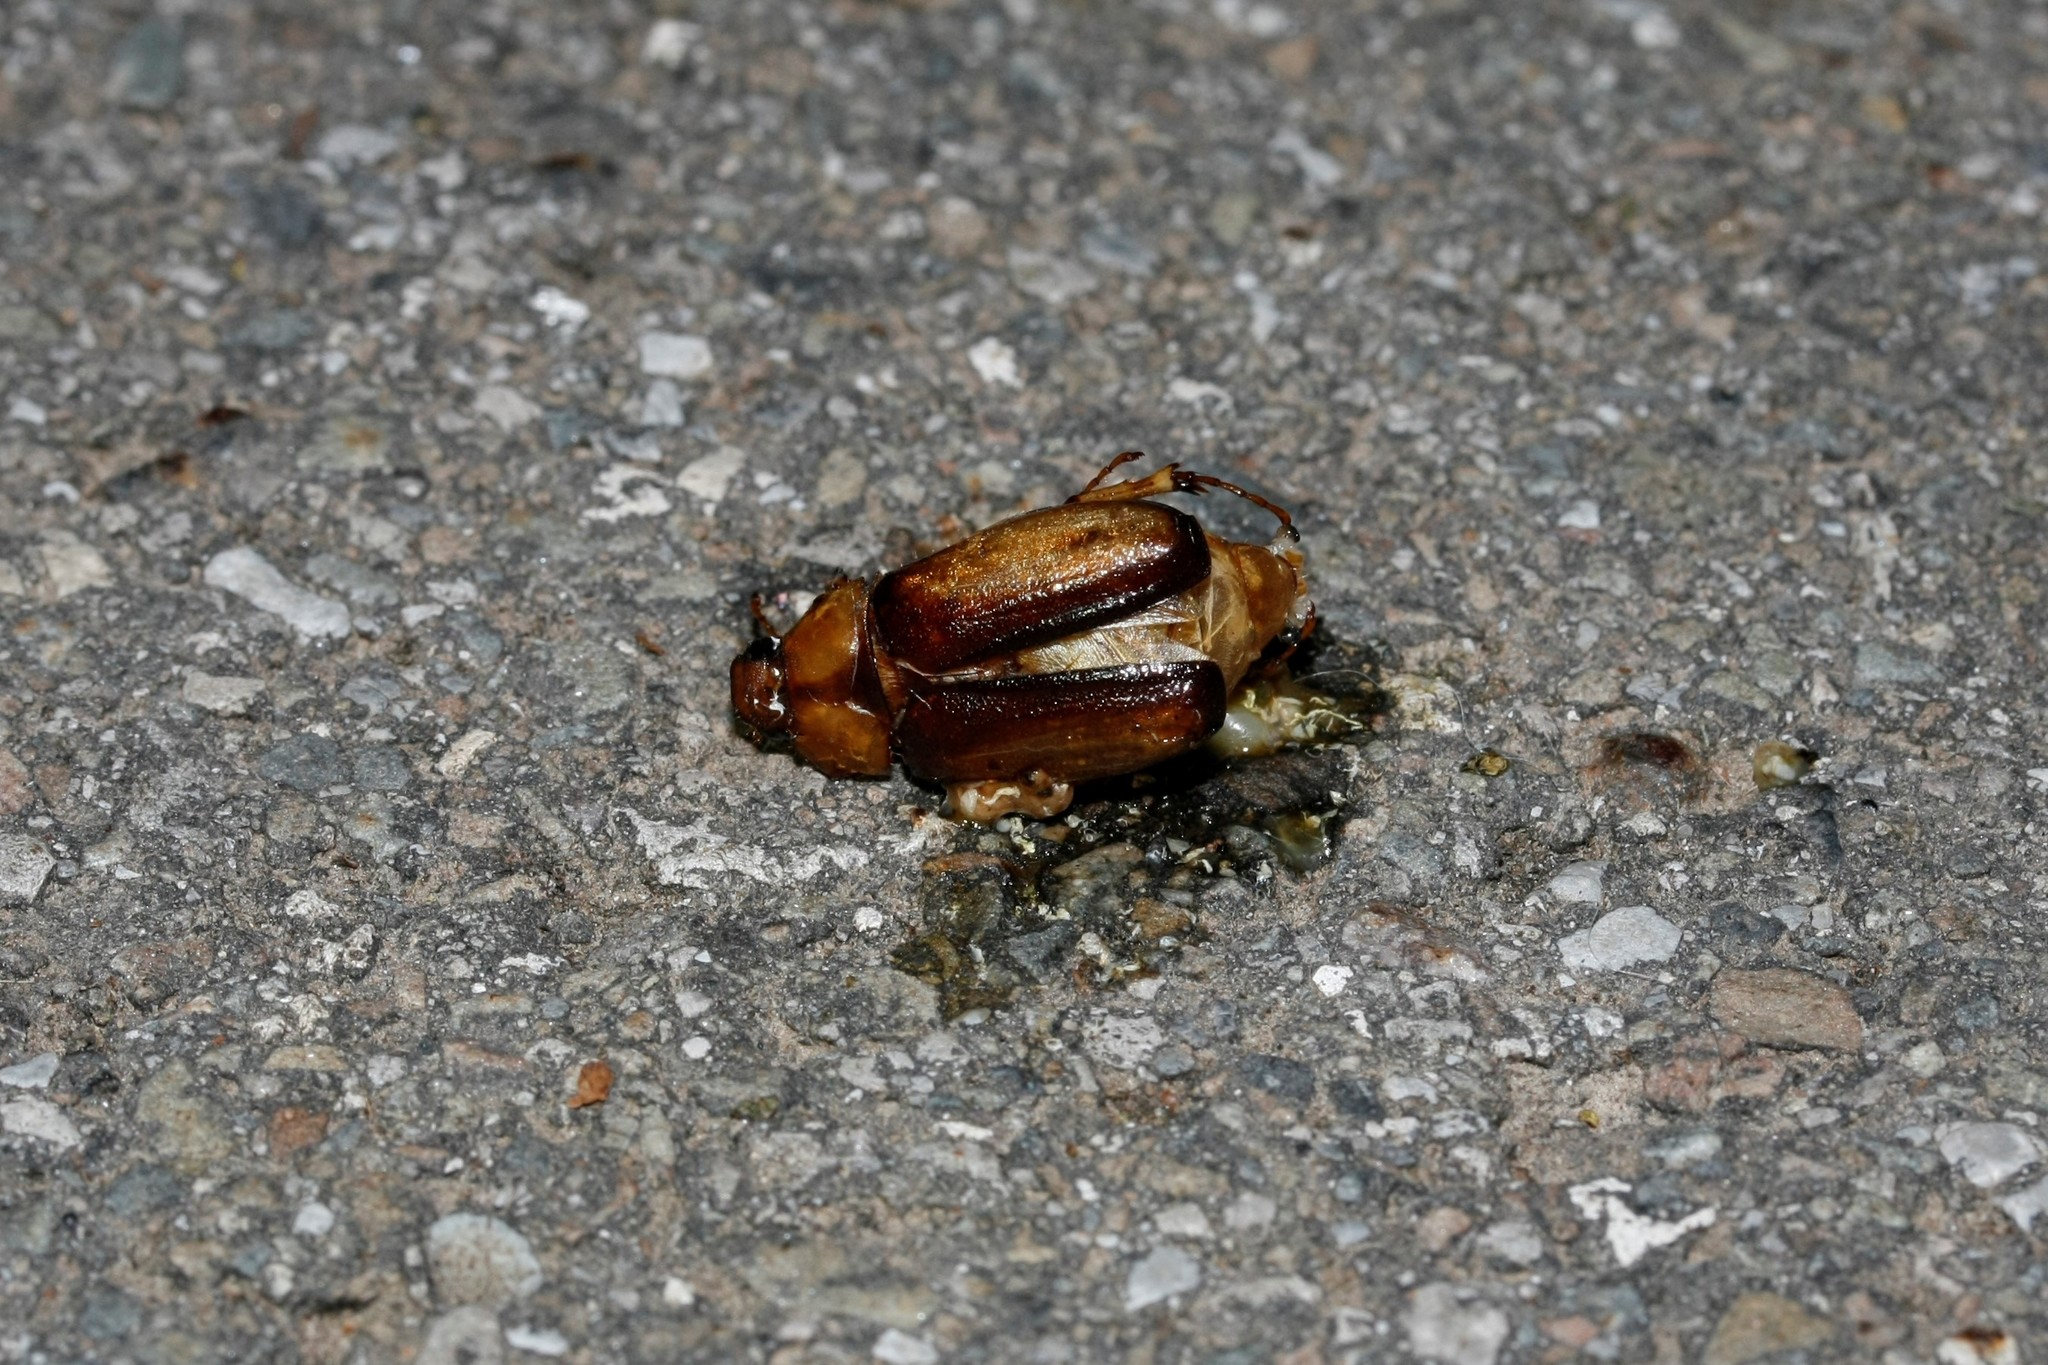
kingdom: Animalia
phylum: Arthropoda
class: Insecta
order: Coleoptera
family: Scarabaeidae
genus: Rhizotrogus
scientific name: Rhizotrogus aestivus
